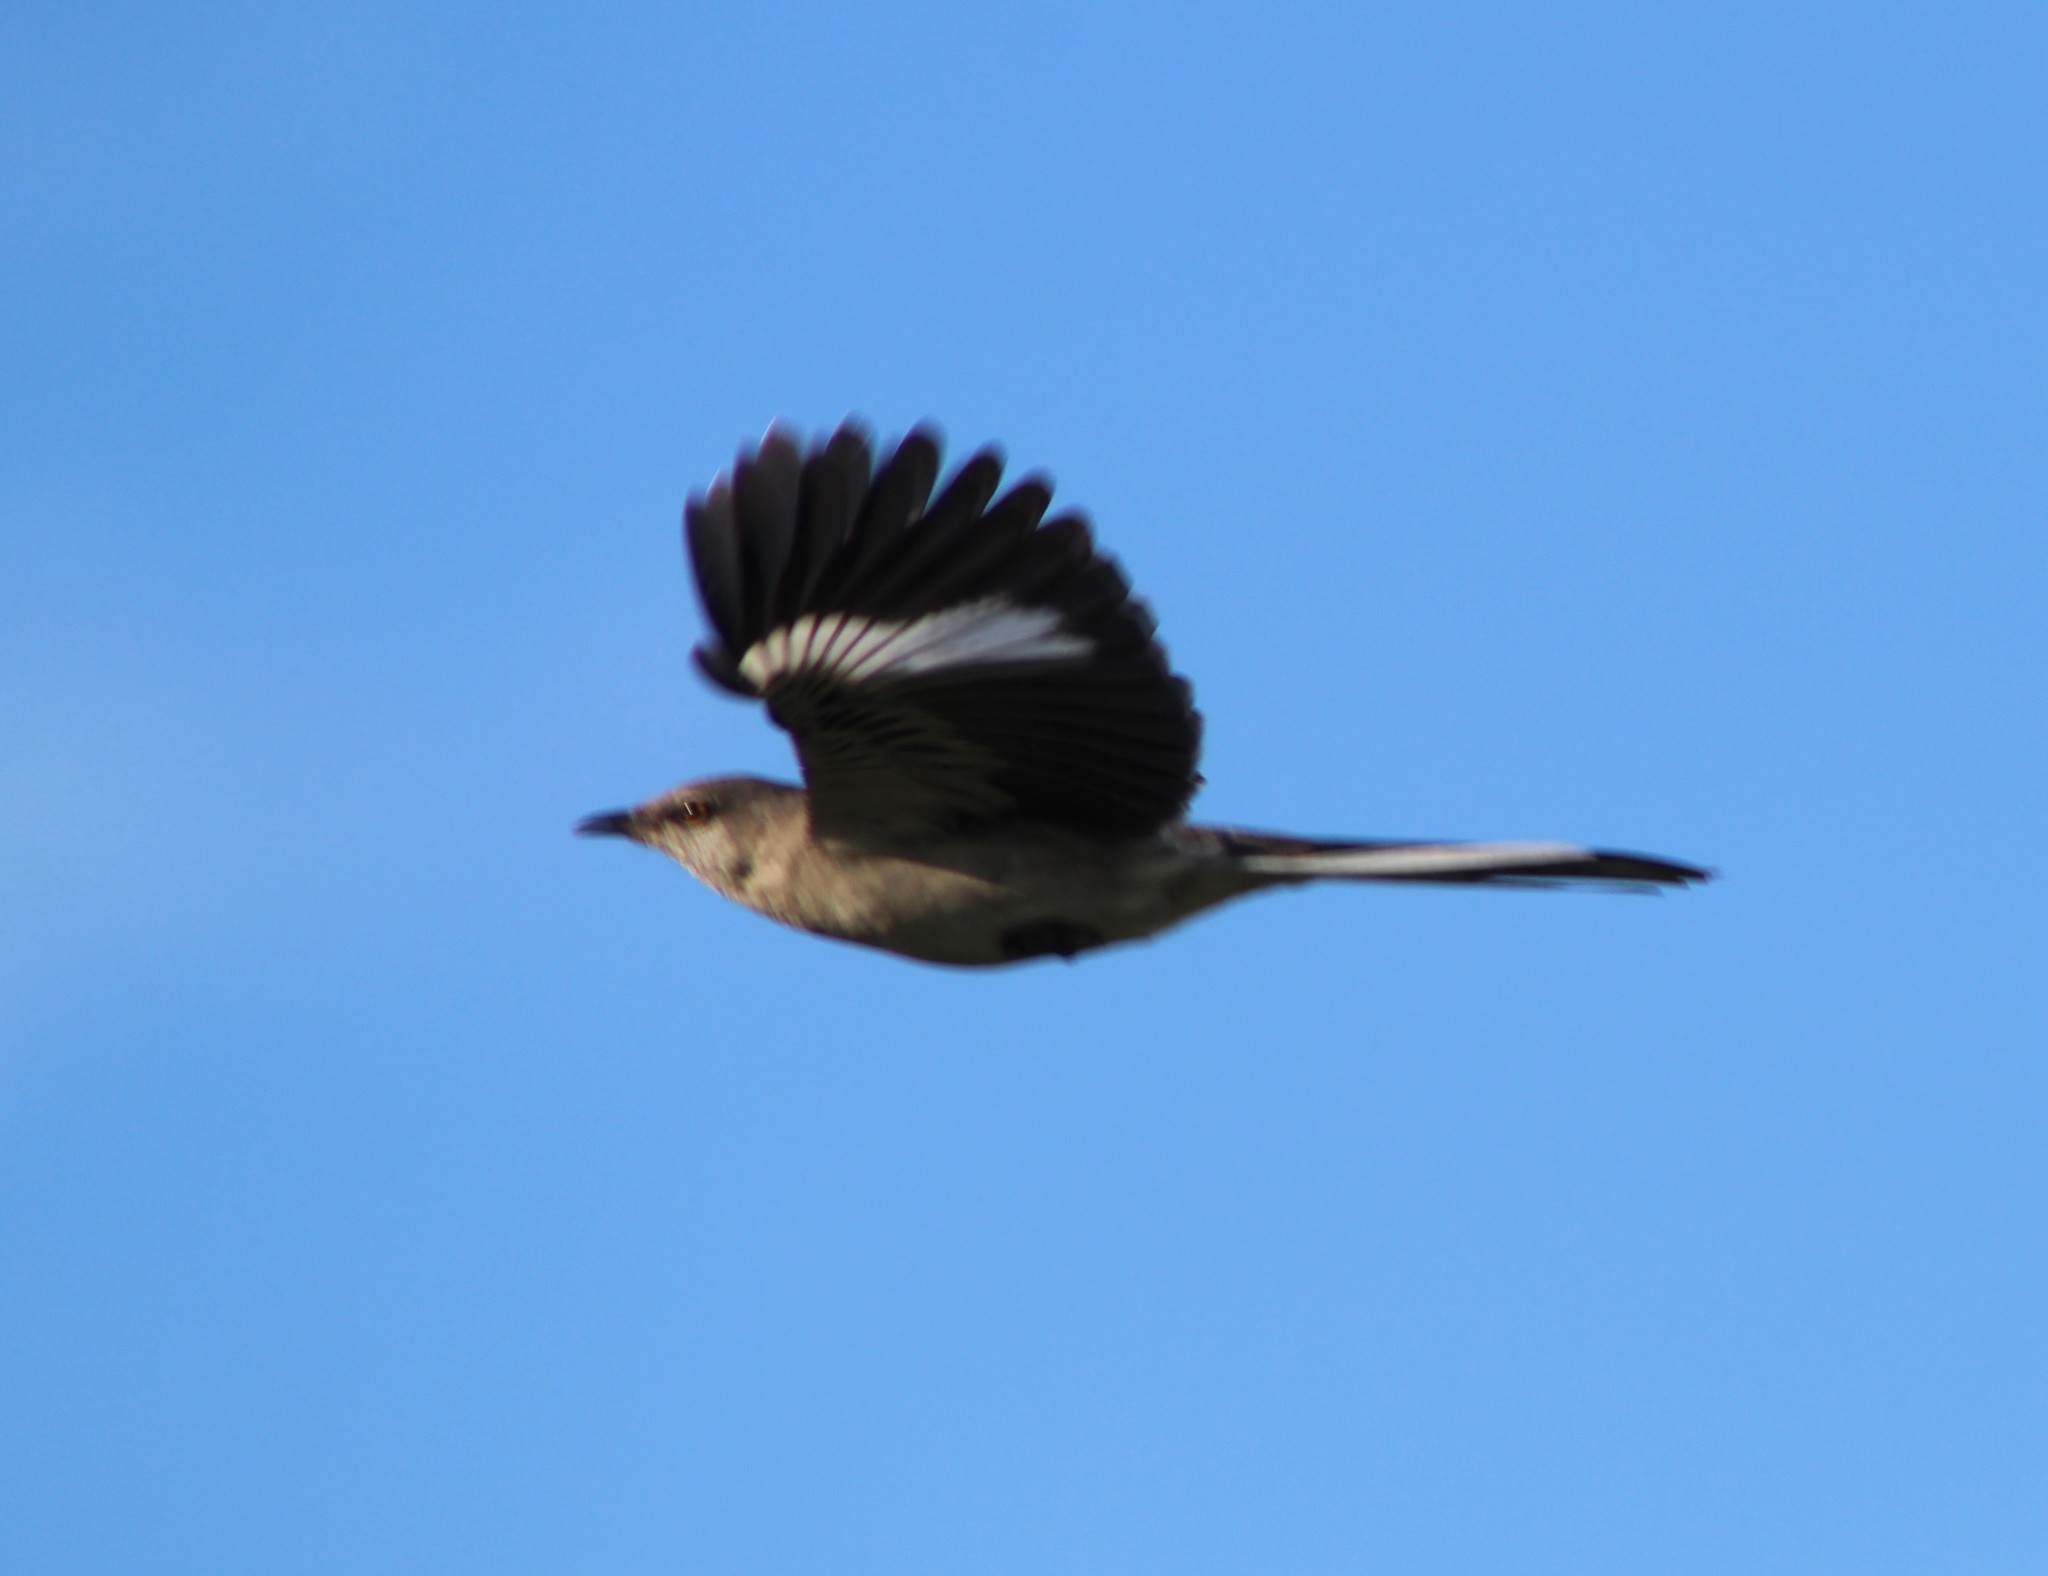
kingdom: Animalia
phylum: Chordata
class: Aves
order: Passeriformes
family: Mimidae
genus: Mimus
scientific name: Mimus polyglottos
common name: Northern mockingbird
